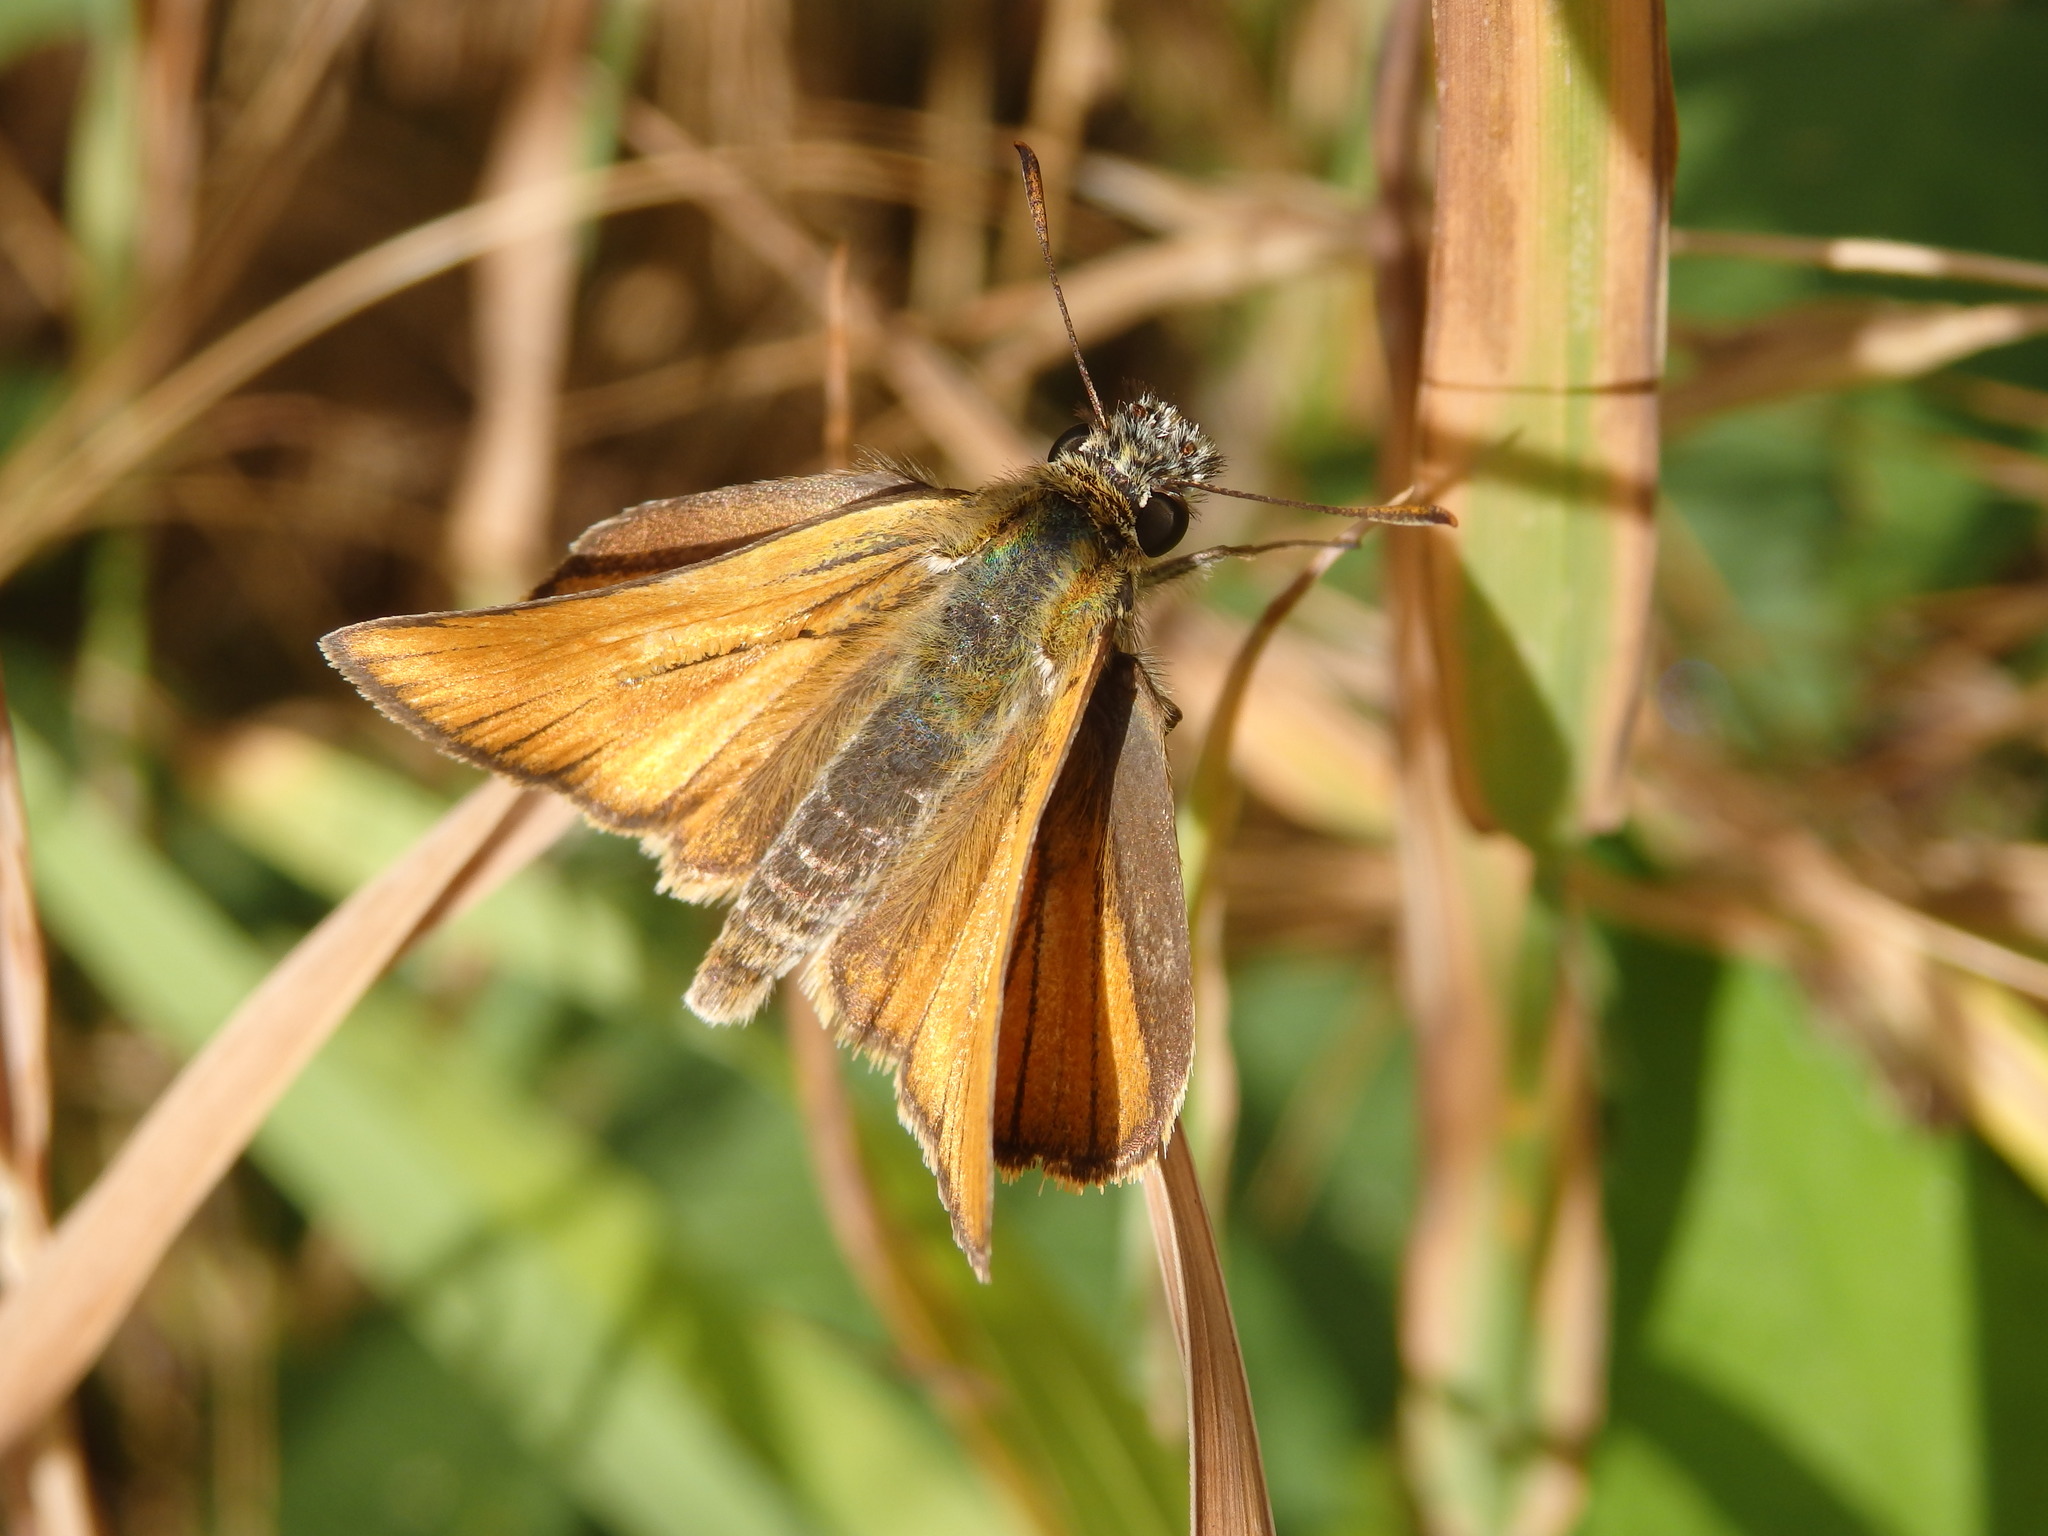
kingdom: Animalia
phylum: Arthropoda
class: Insecta
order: Lepidoptera
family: Hesperiidae
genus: Thymelicus
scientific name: Thymelicus sylvestris
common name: Small skipper
